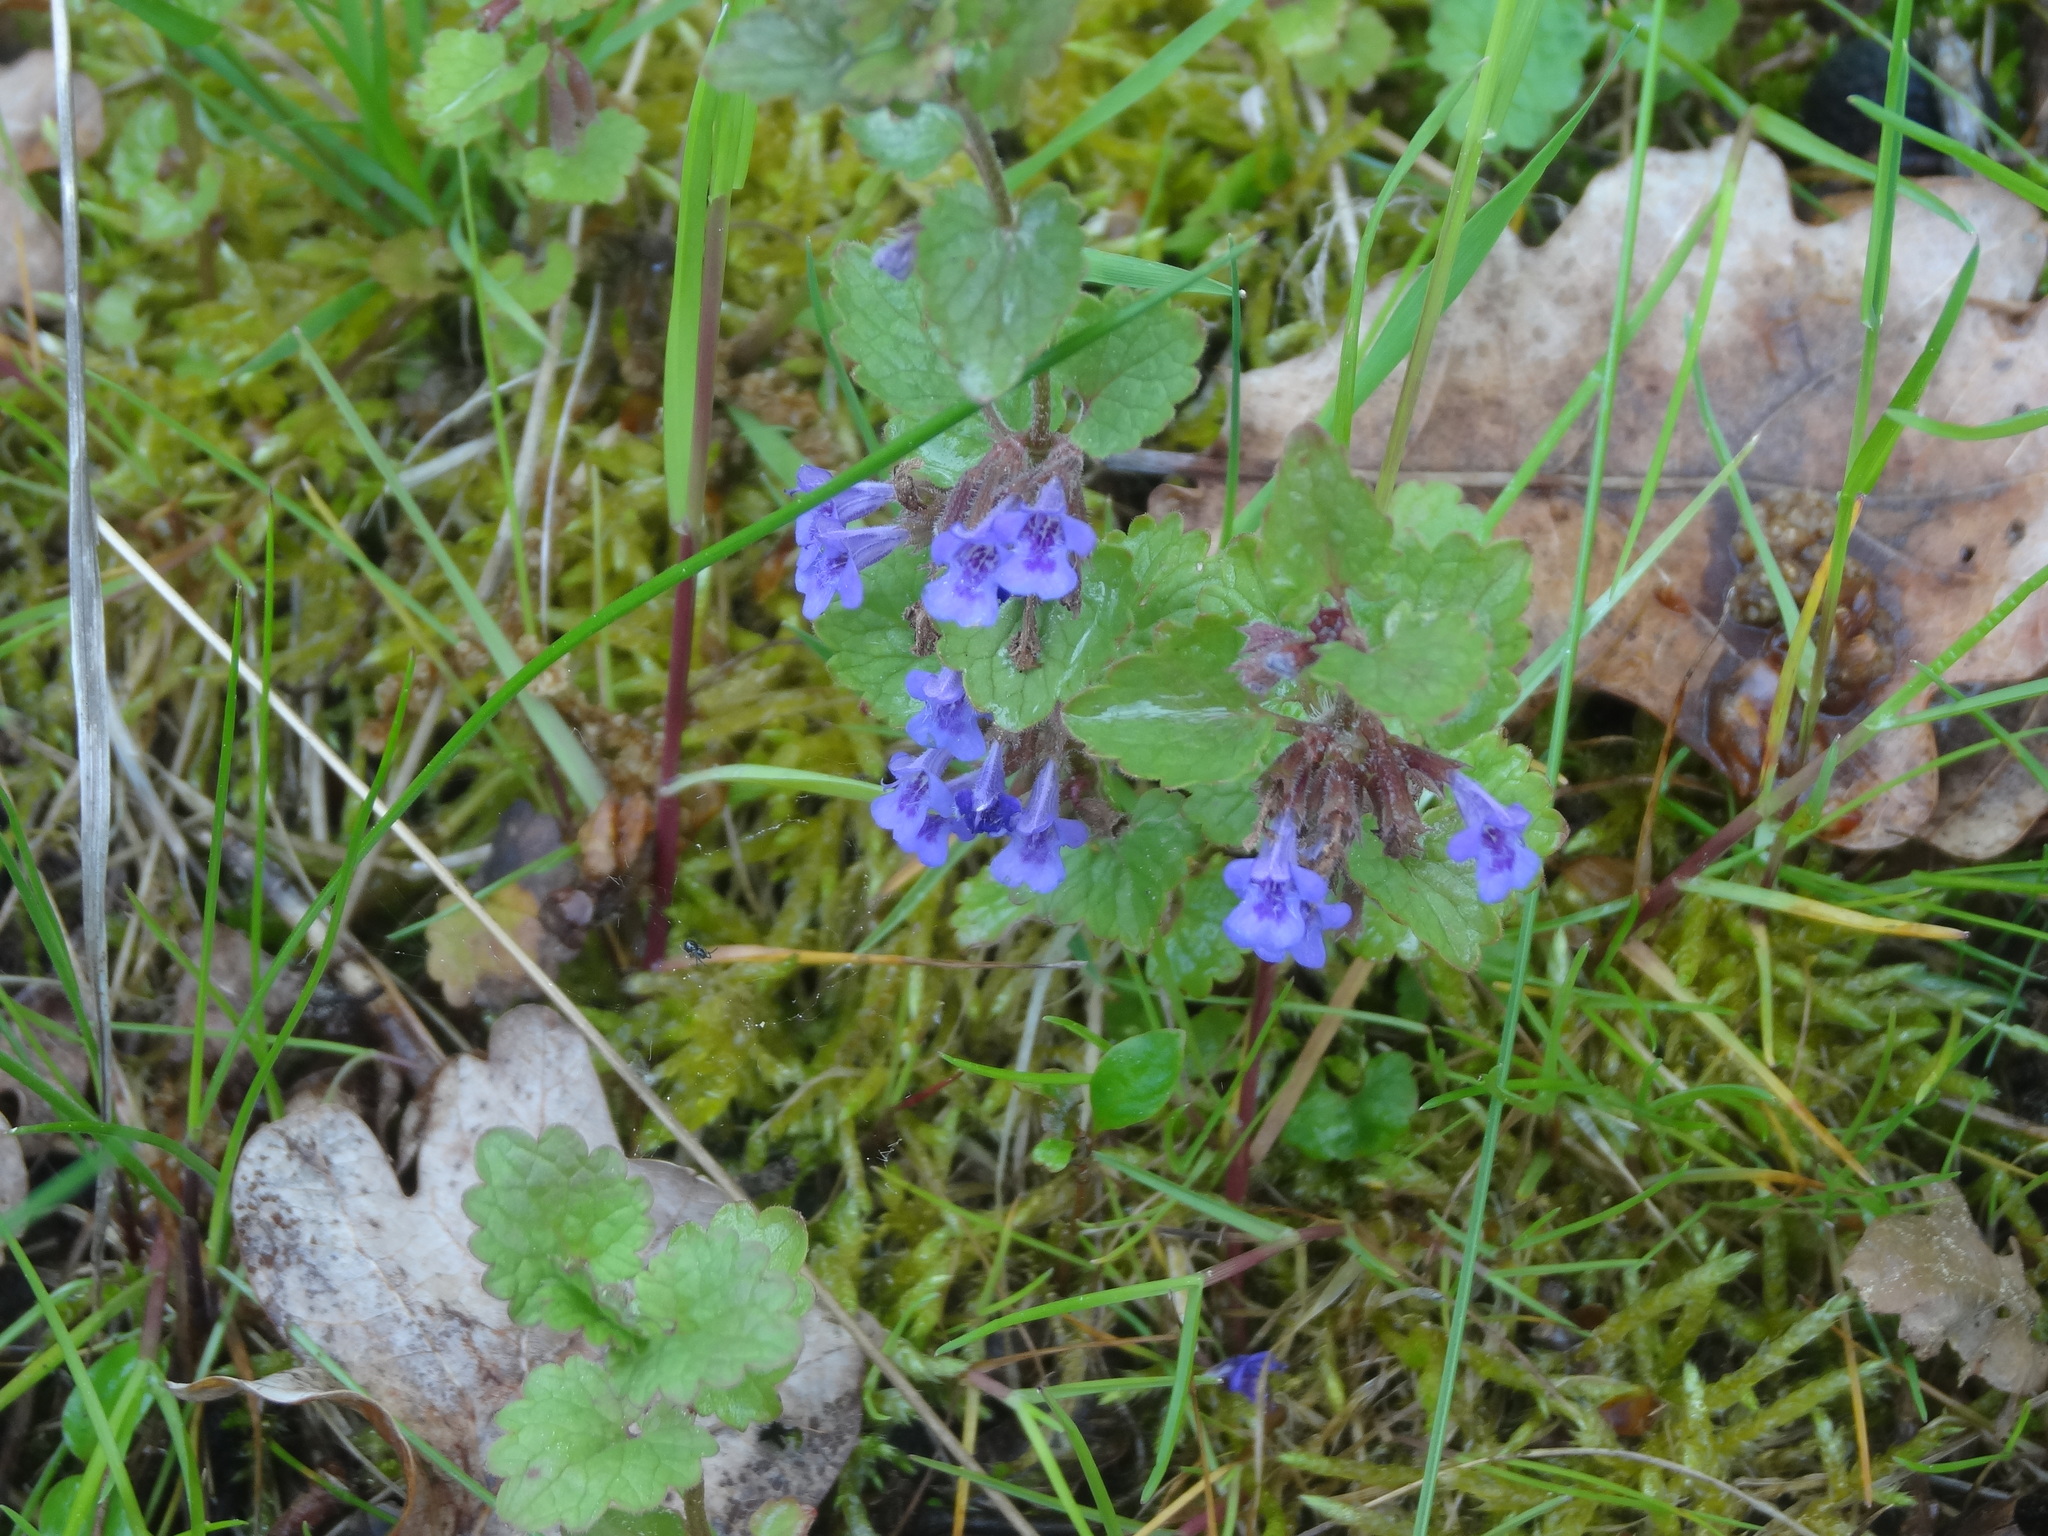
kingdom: Plantae
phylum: Tracheophyta
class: Magnoliopsida
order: Lamiales
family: Lamiaceae
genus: Glechoma
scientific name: Glechoma hederacea
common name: Ground ivy
